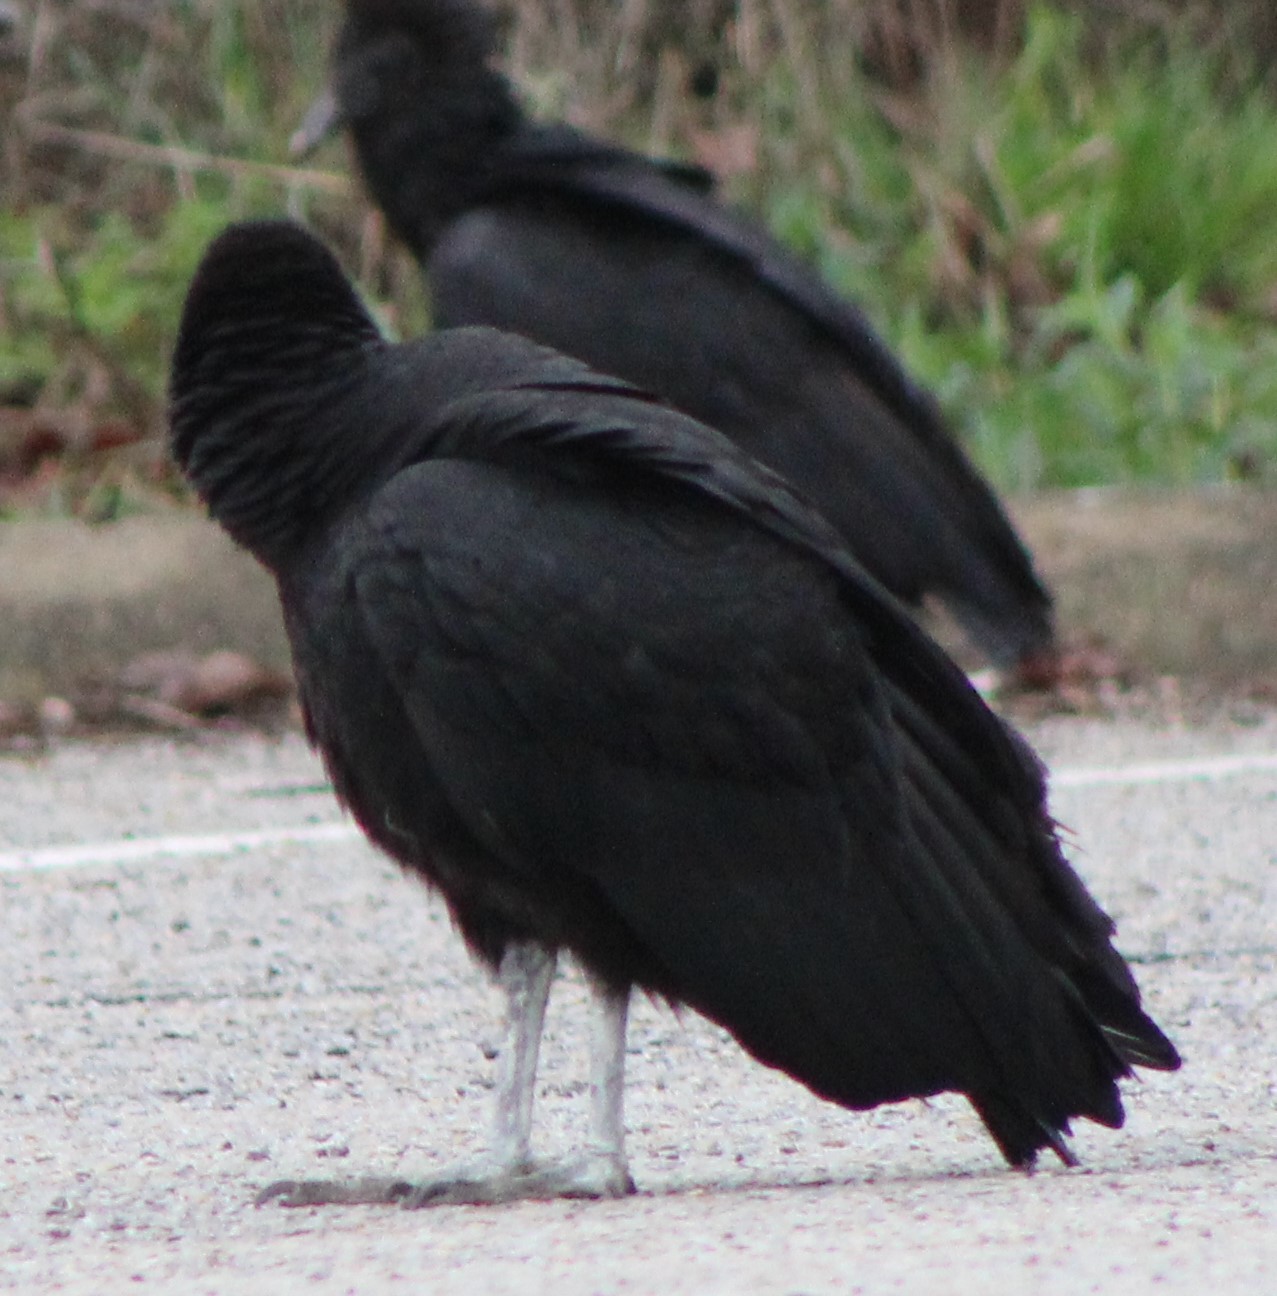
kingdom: Animalia
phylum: Chordata
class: Aves
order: Accipitriformes
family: Cathartidae
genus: Coragyps
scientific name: Coragyps atratus
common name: Black vulture
